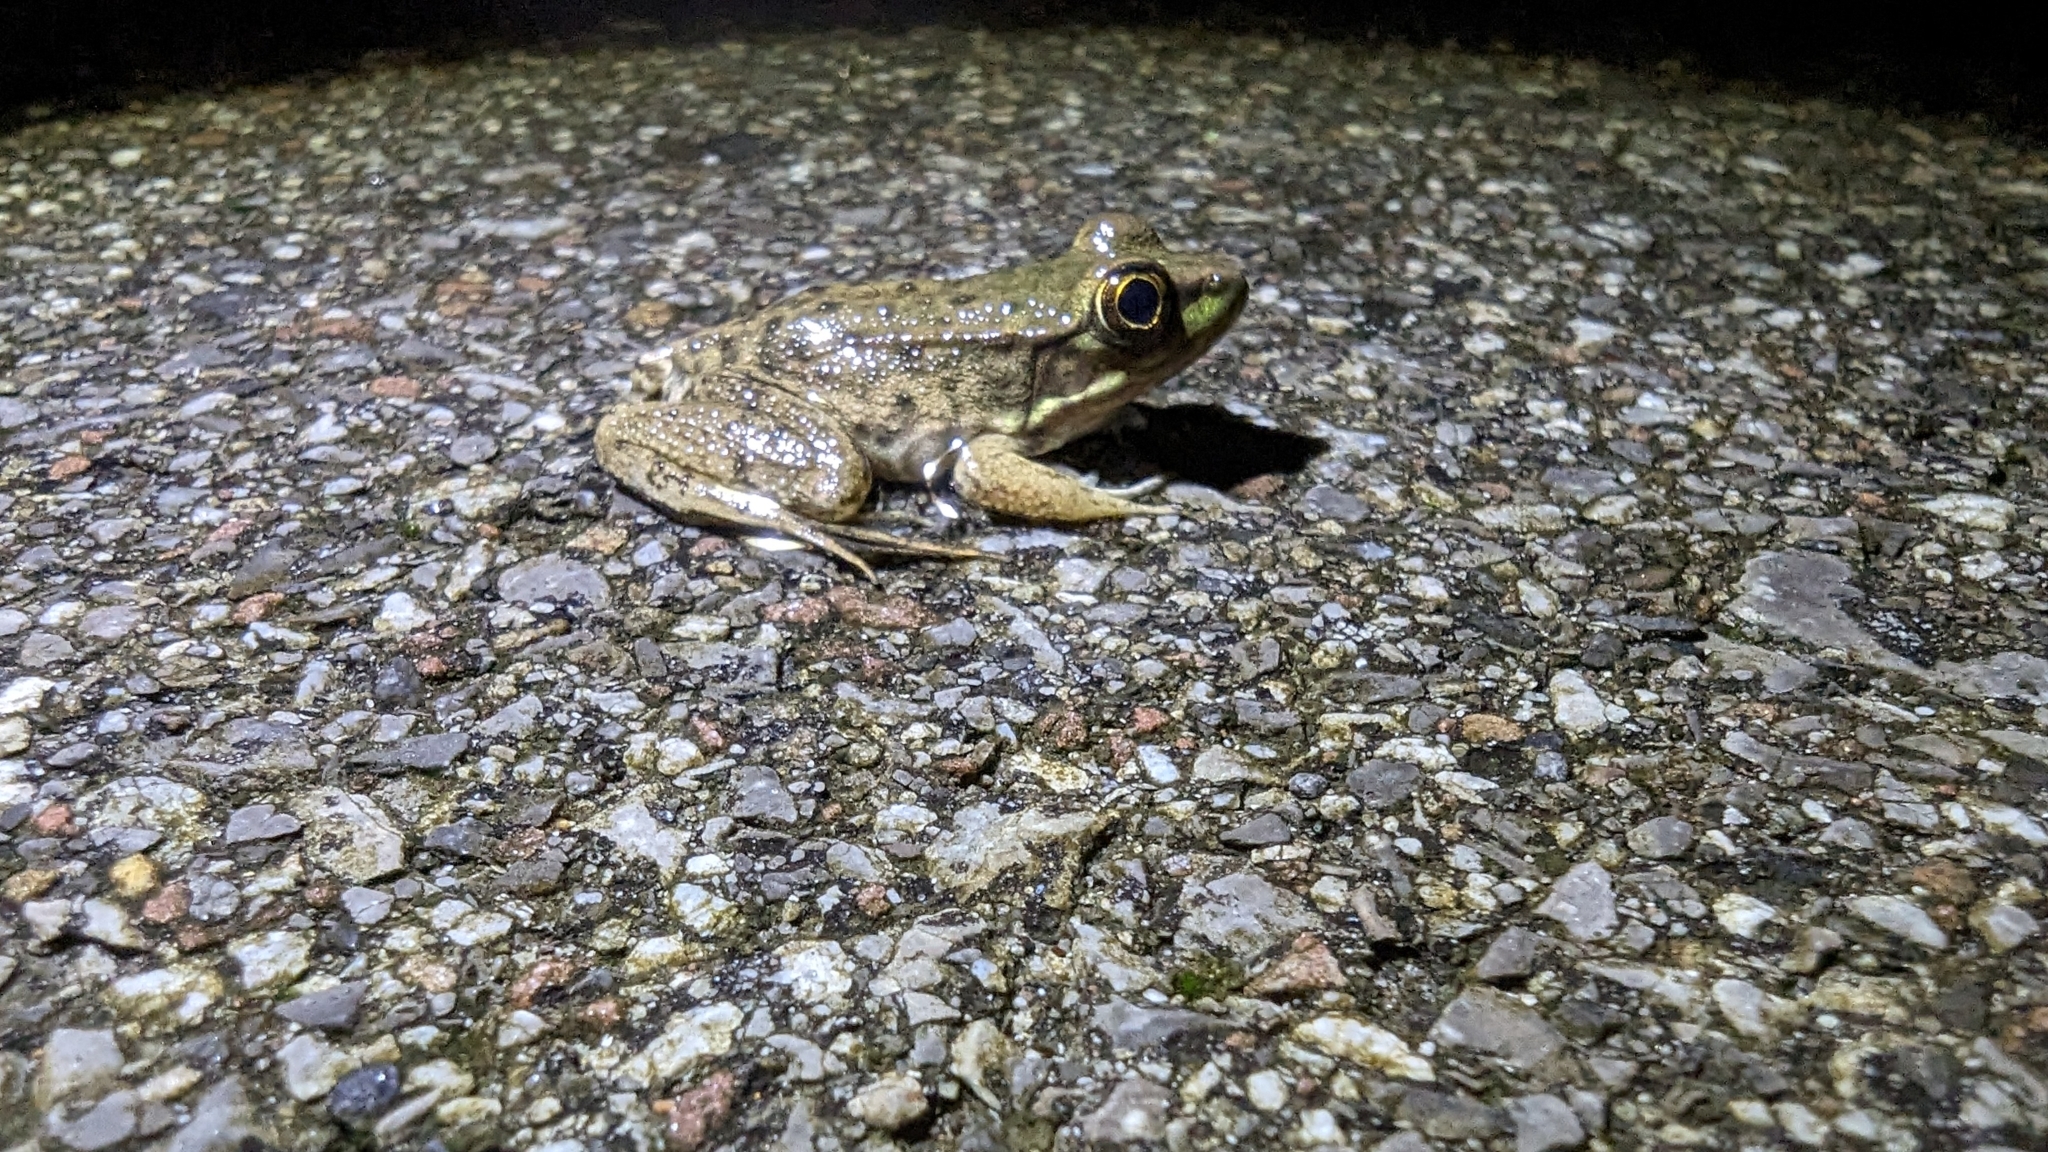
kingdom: Animalia
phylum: Chordata
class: Amphibia
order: Anura
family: Ranidae
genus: Lithobates
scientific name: Lithobates clamitans
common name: Green frog
